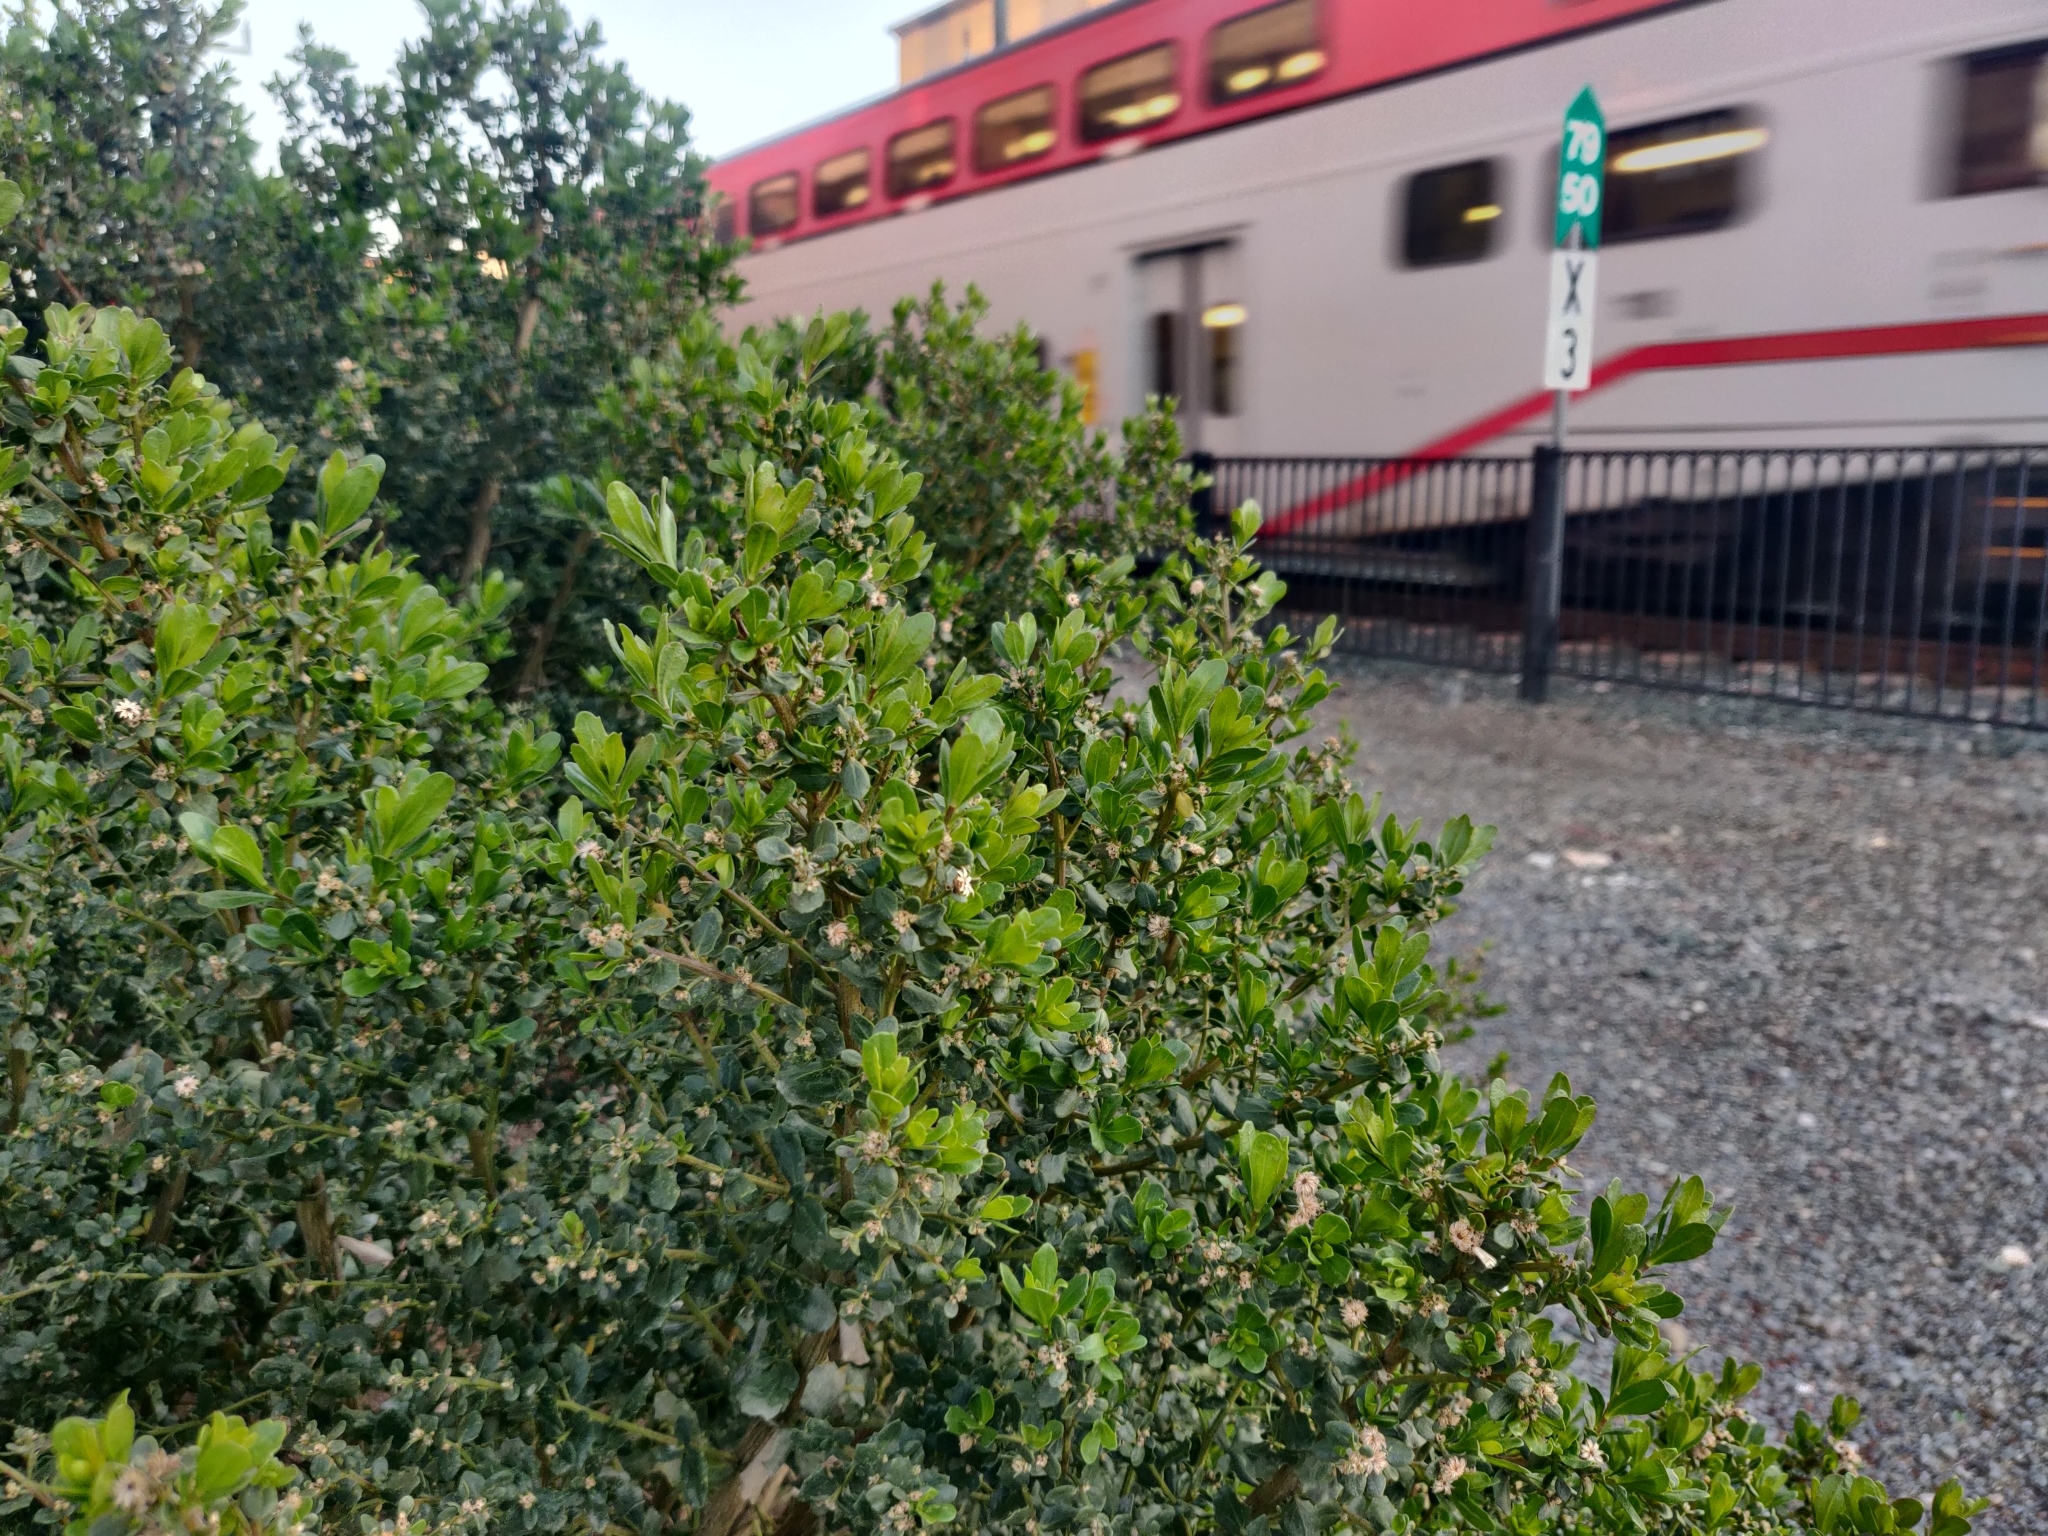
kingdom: Plantae
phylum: Tracheophyta
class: Magnoliopsida
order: Asterales
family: Asteraceae
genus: Baccharis
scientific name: Baccharis pilularis
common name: Coyotebrush
